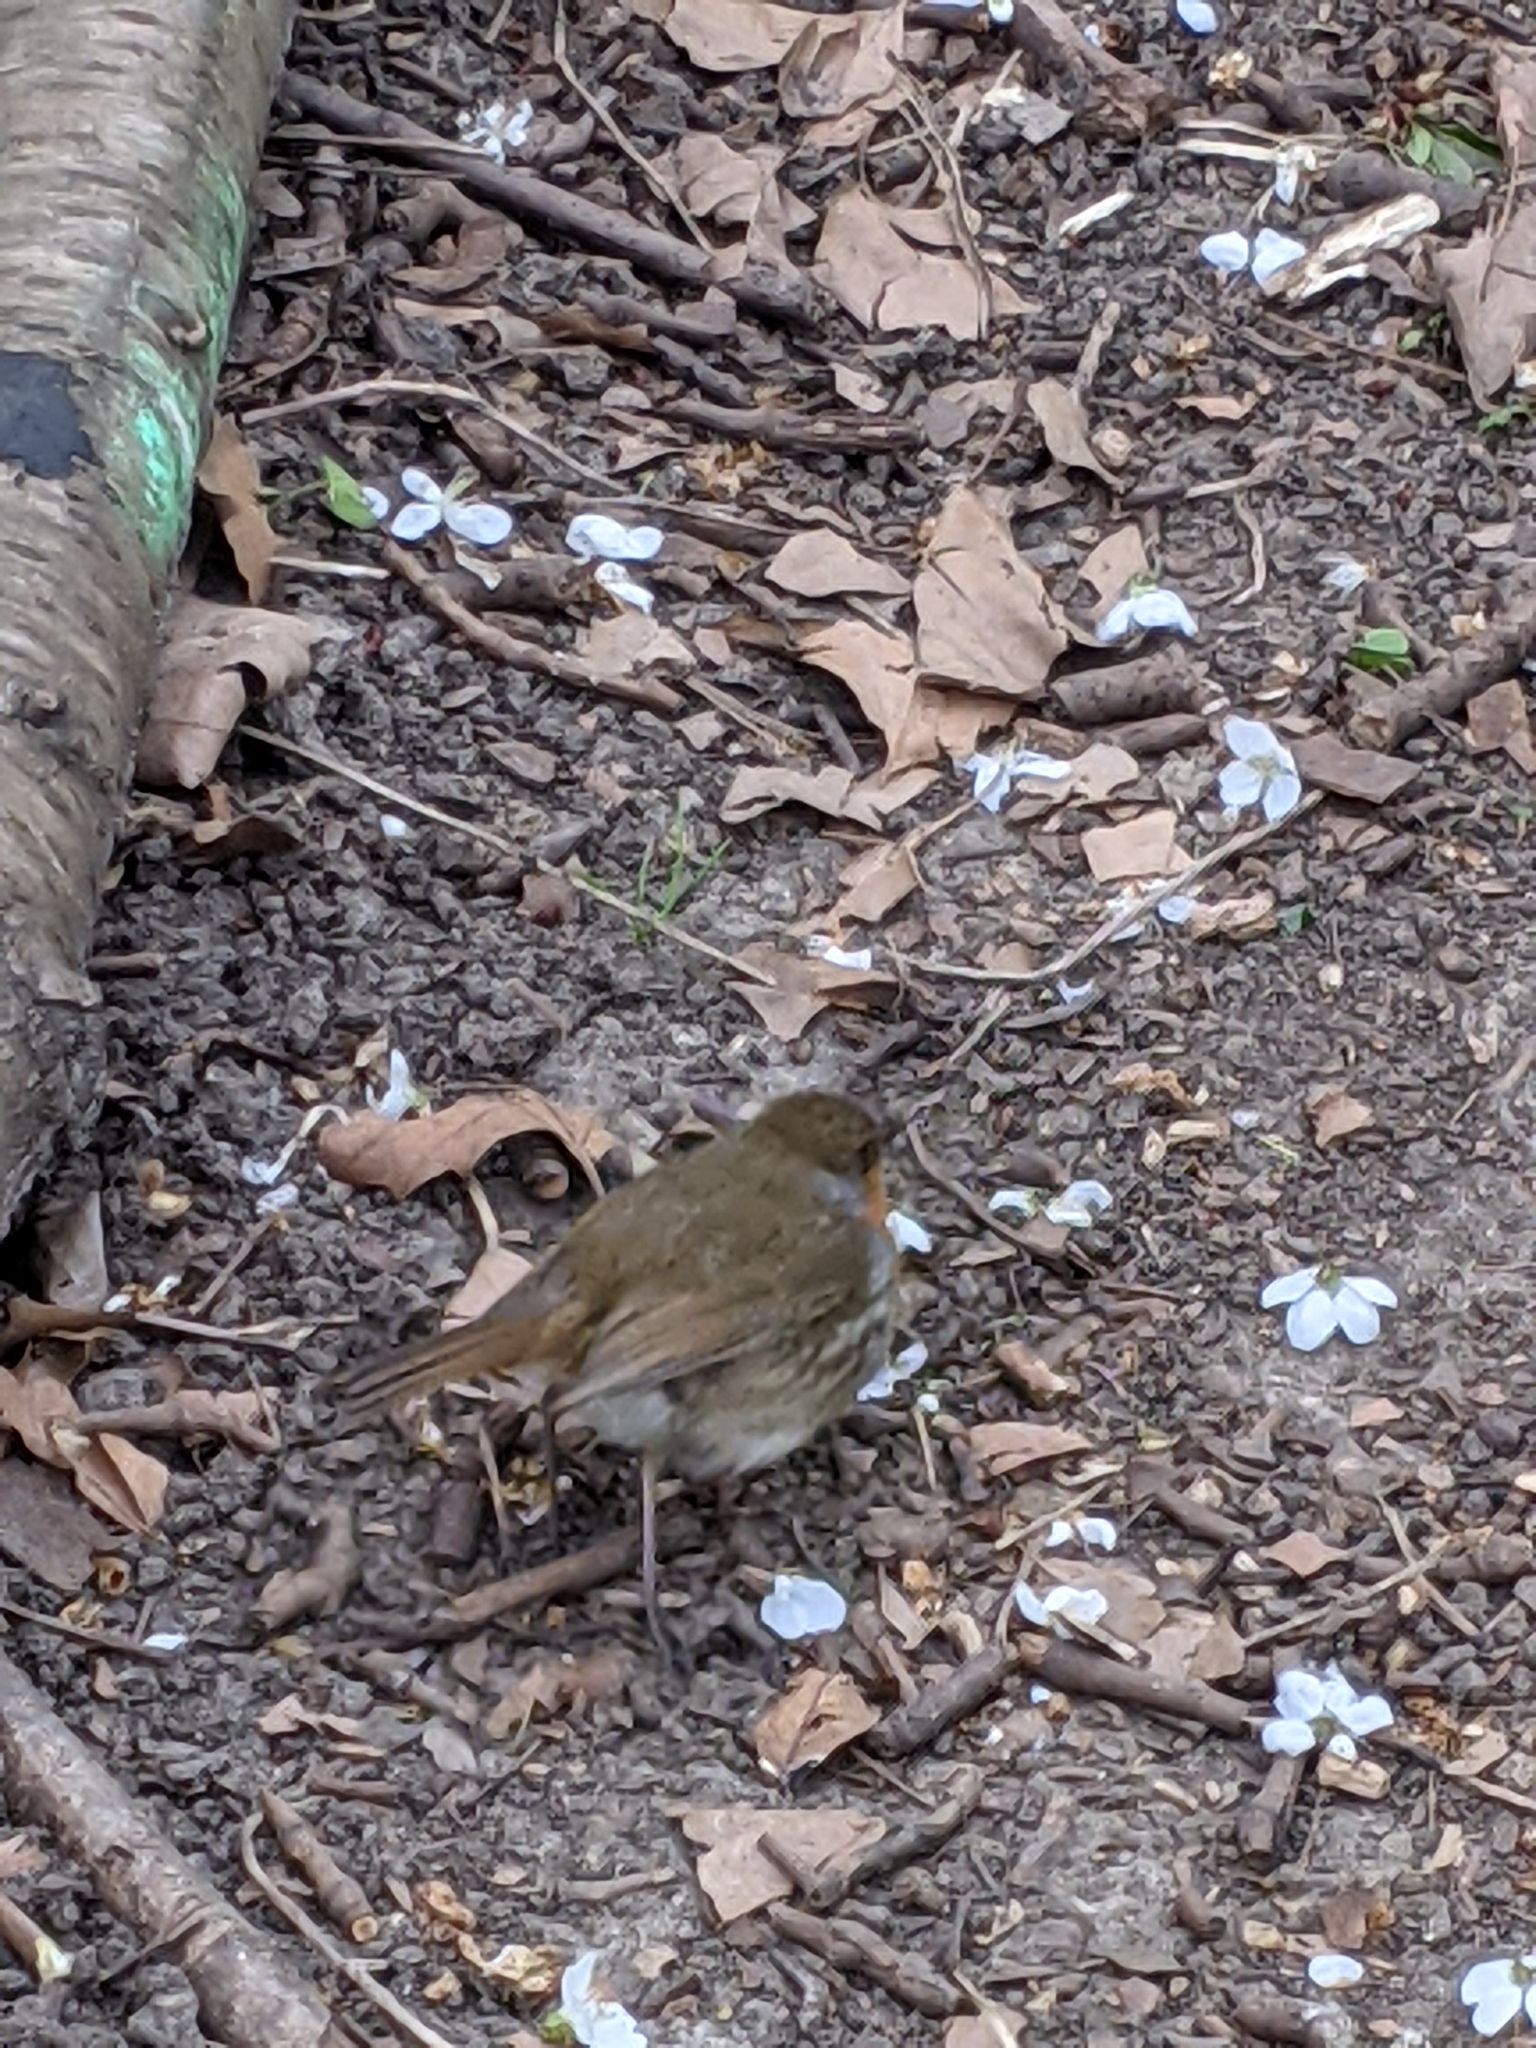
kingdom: Animalia
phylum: Chordata
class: Aves
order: Passeriformes
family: Muscicapidae
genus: Erithacus
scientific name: Erithacus rubecula
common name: European robin
